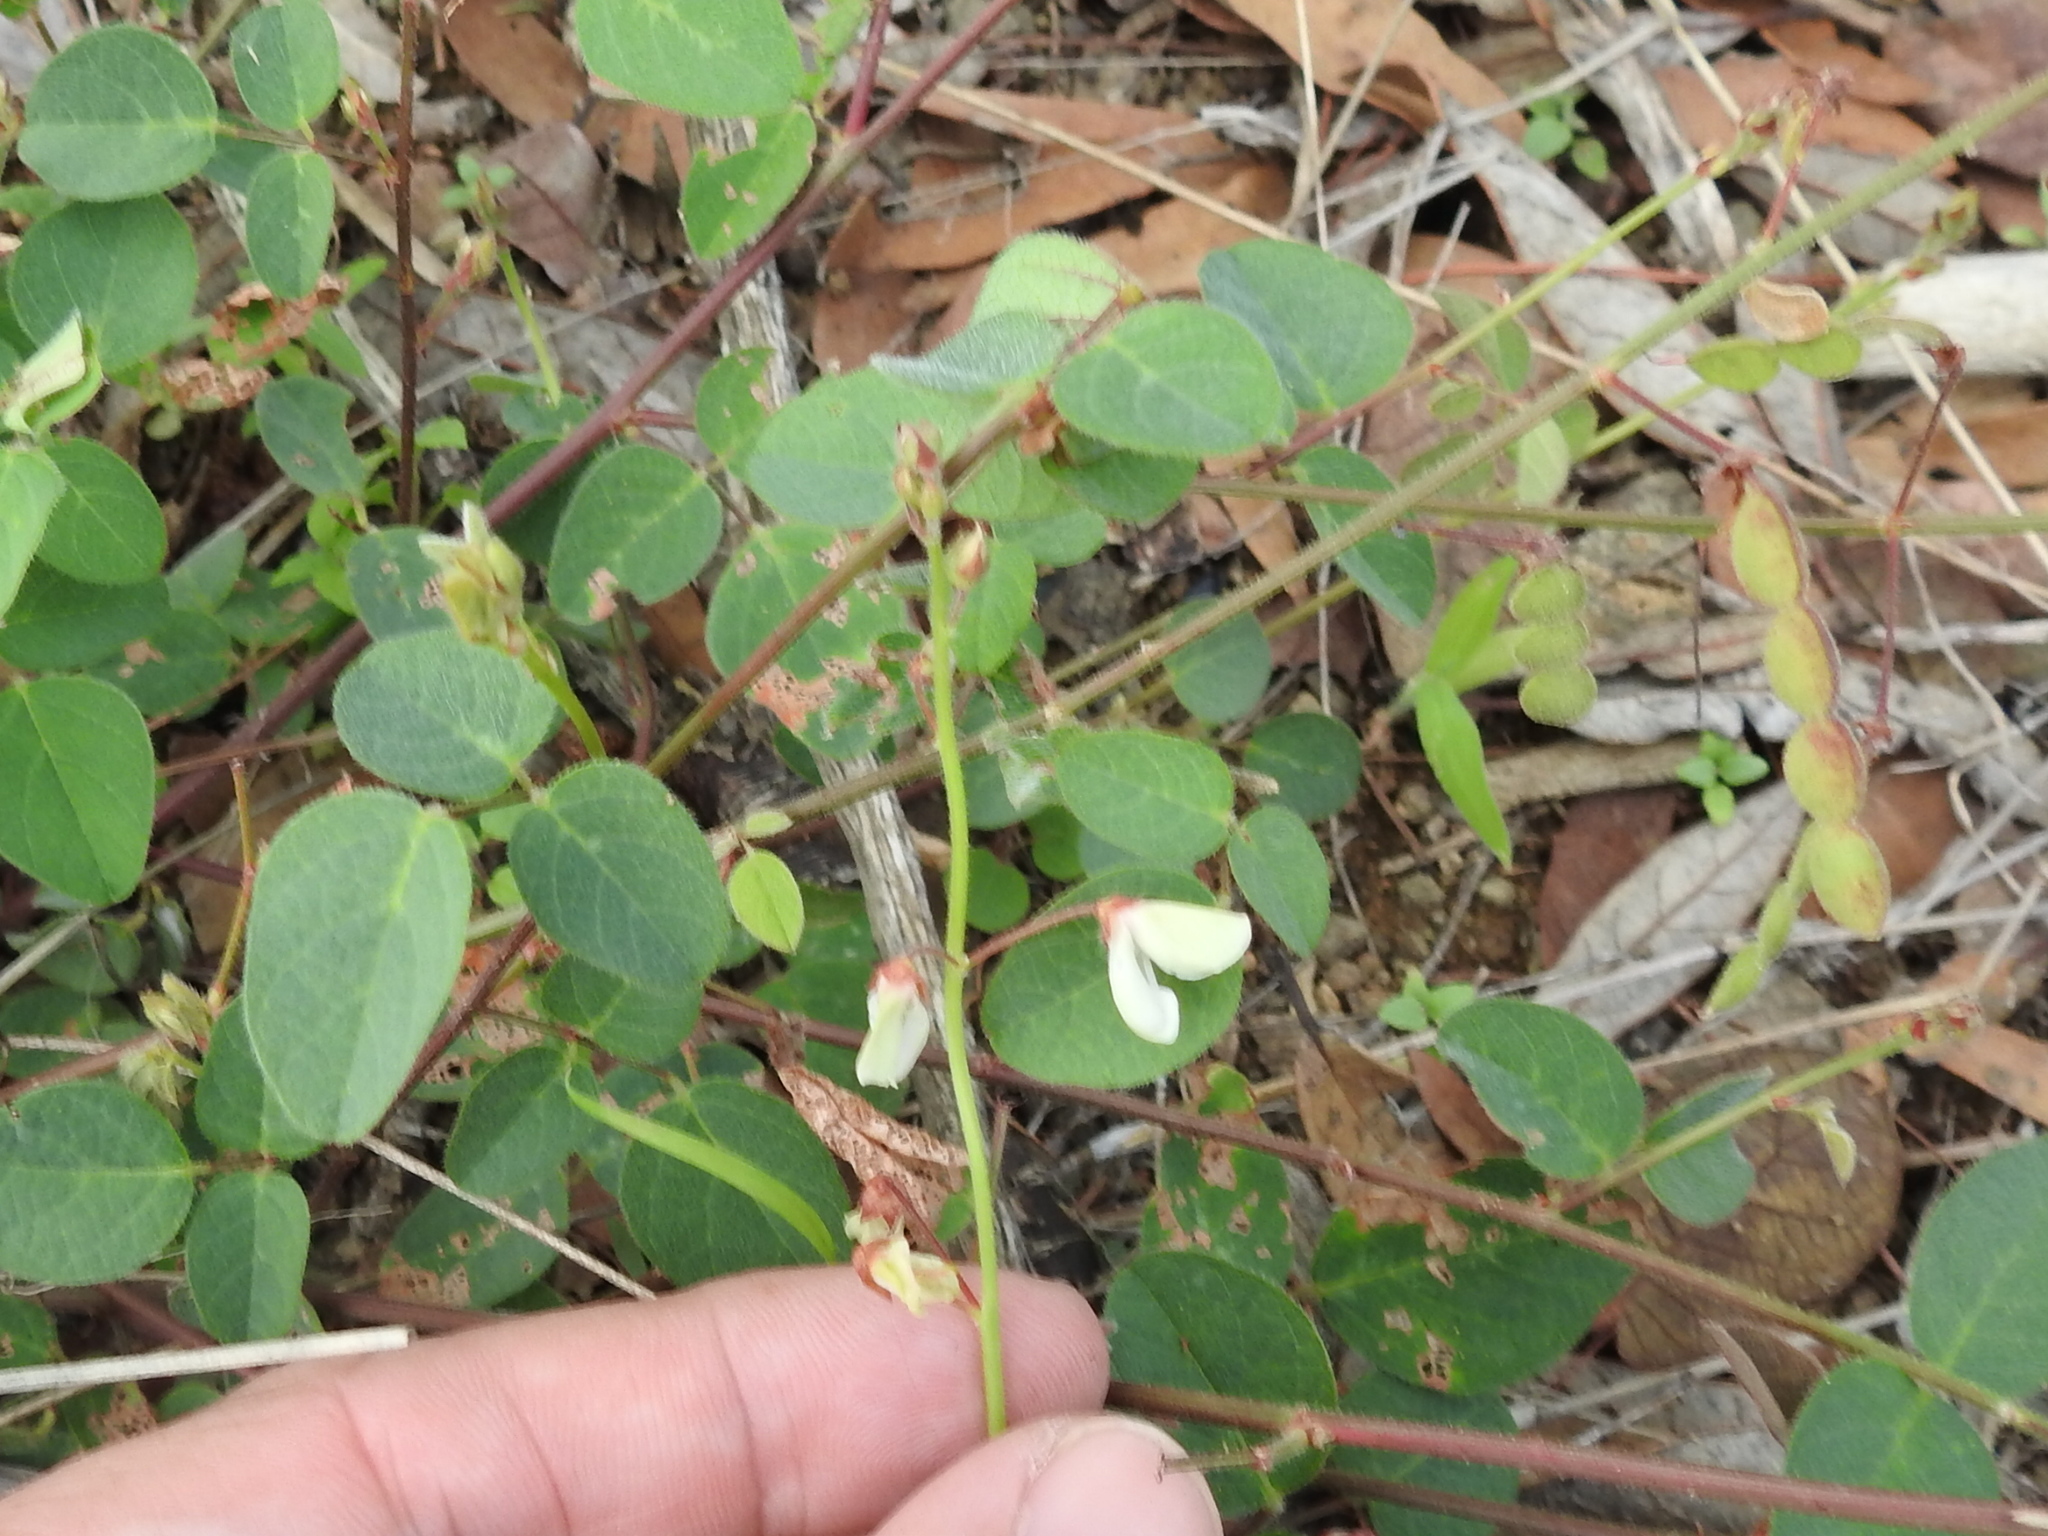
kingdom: Plantae
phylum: Tracheophyta
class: Magnoliopsida
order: Fabales
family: Fabaceae
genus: Desmodium
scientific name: Desmodium grahamii
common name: Graham's tick-trefoil
